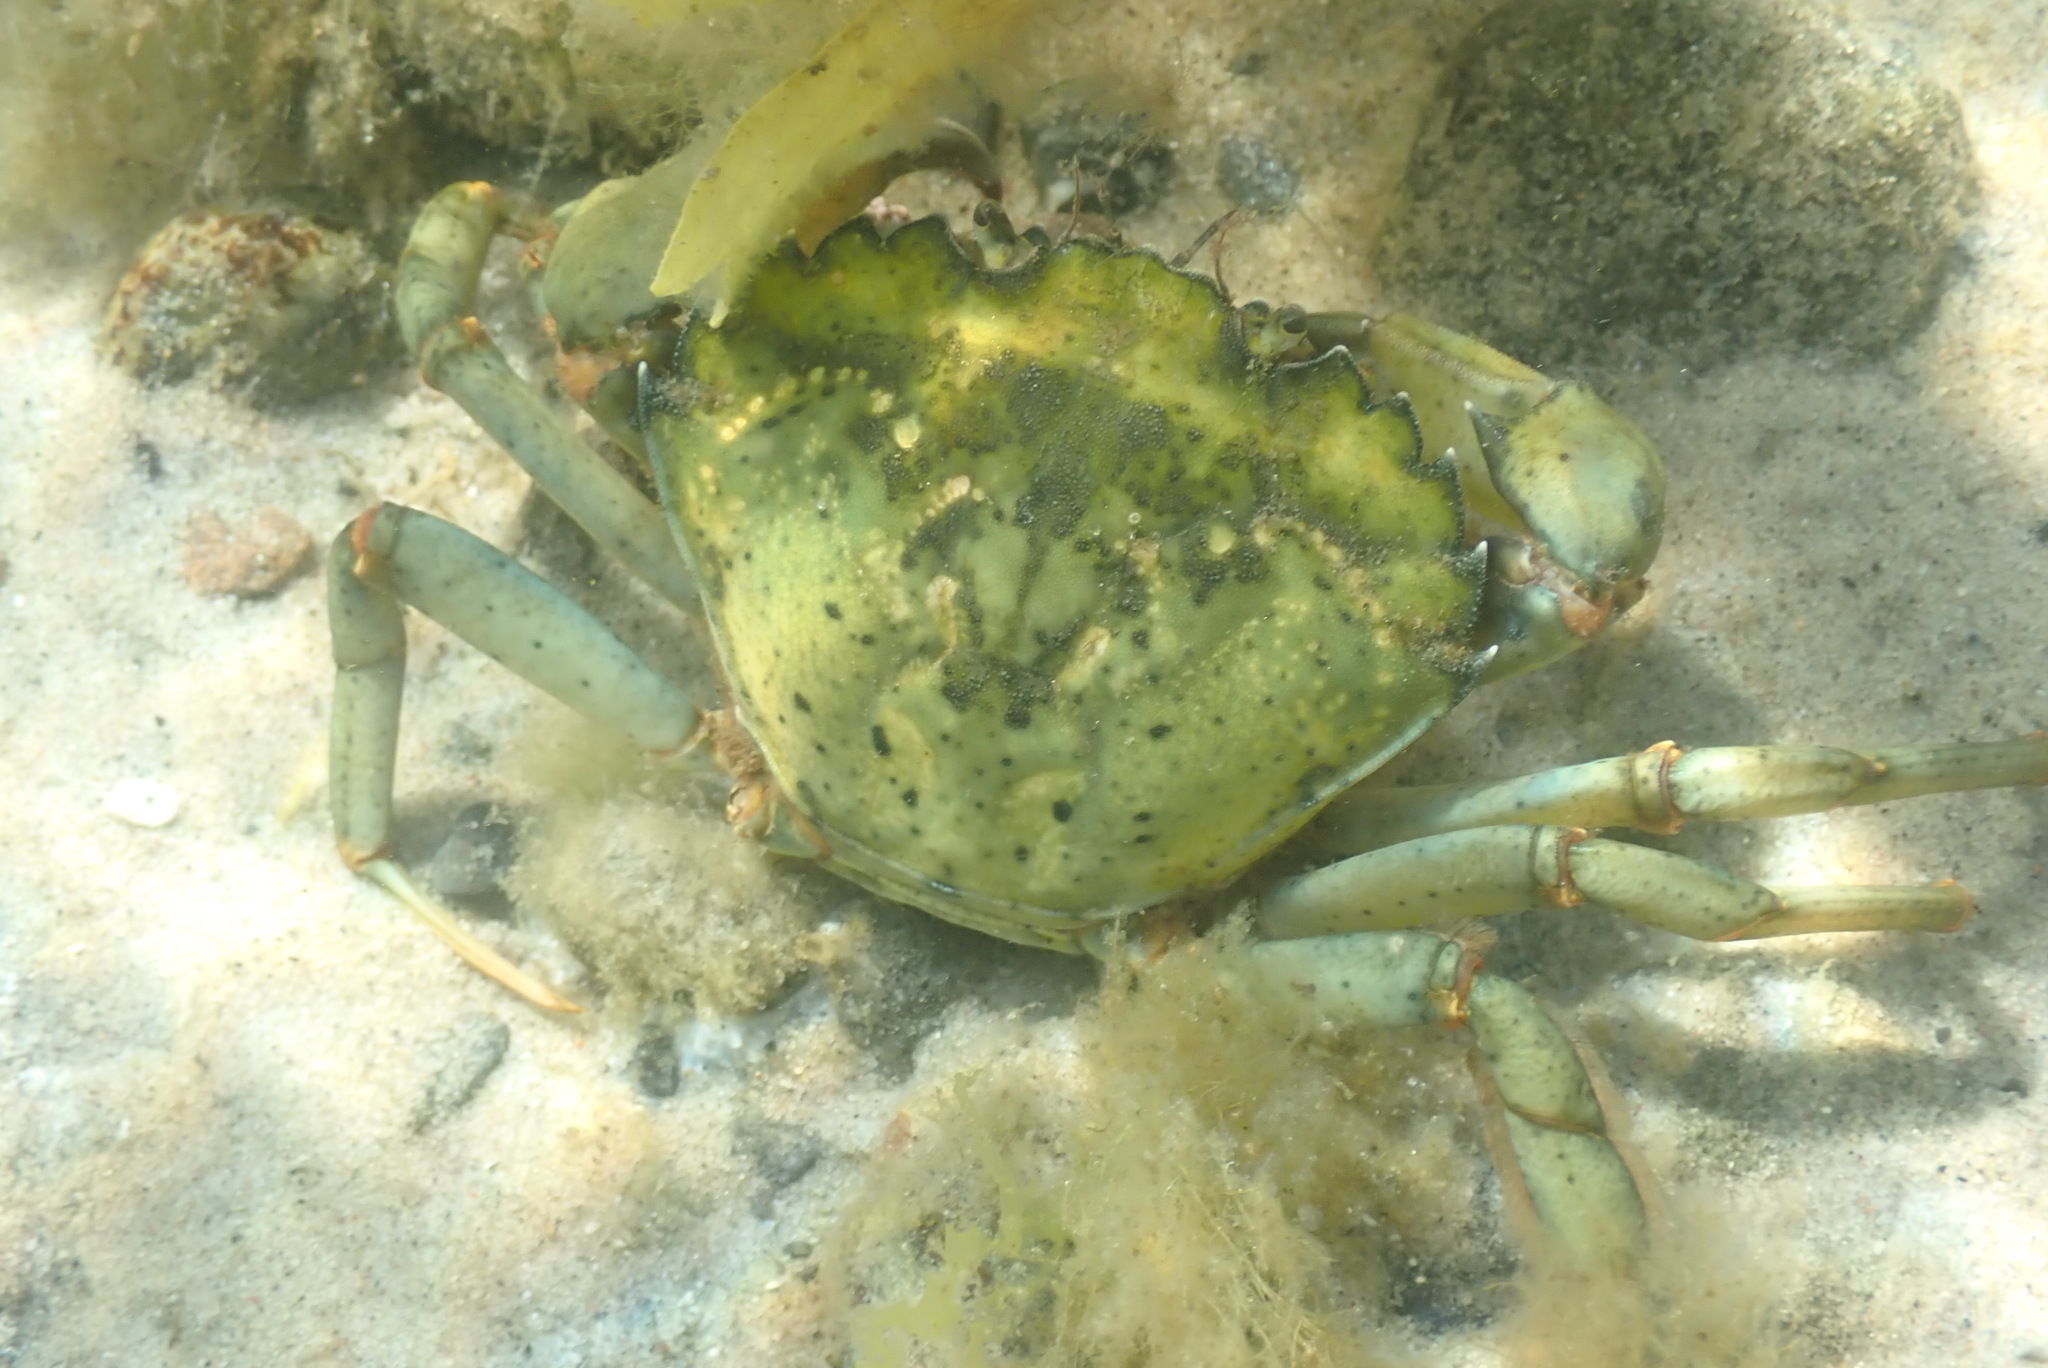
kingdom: Animalia
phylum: Arthropoda
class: Malacostraca
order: Decapoda
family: Carcinidae
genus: Carcinus
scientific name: Carcinus maenas
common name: European green crab
